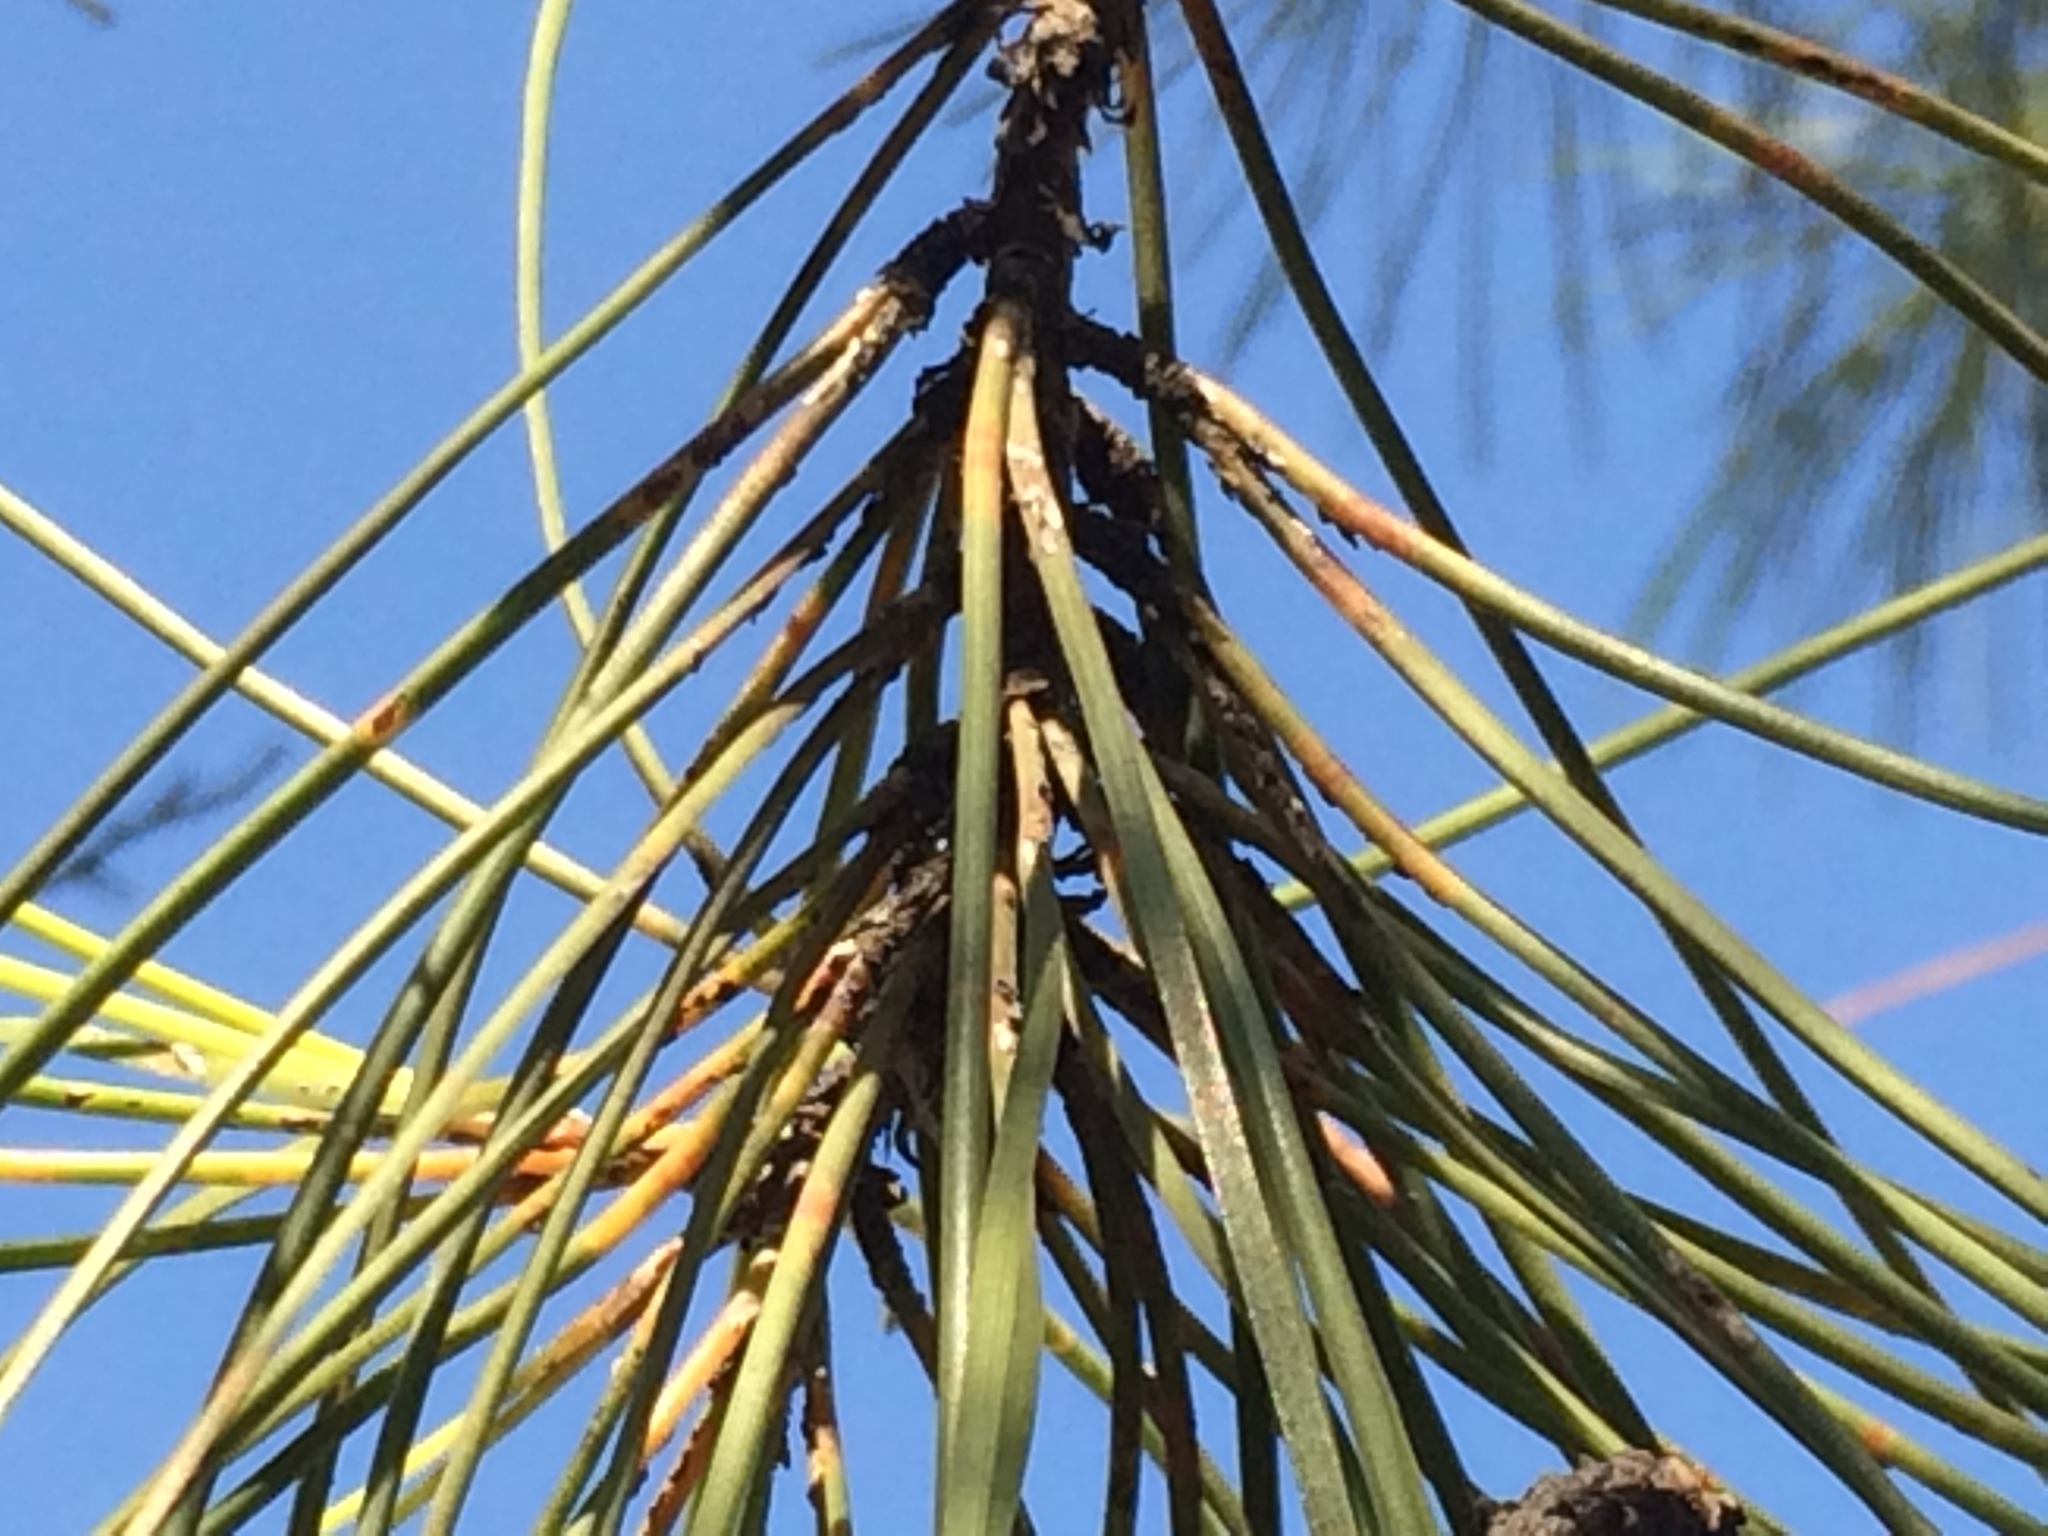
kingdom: Plantae
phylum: Tracheophyta
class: Pinopsida
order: Pinales
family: Pinaceae
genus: Pinus
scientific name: Pinus pinaster
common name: Maritime pine
